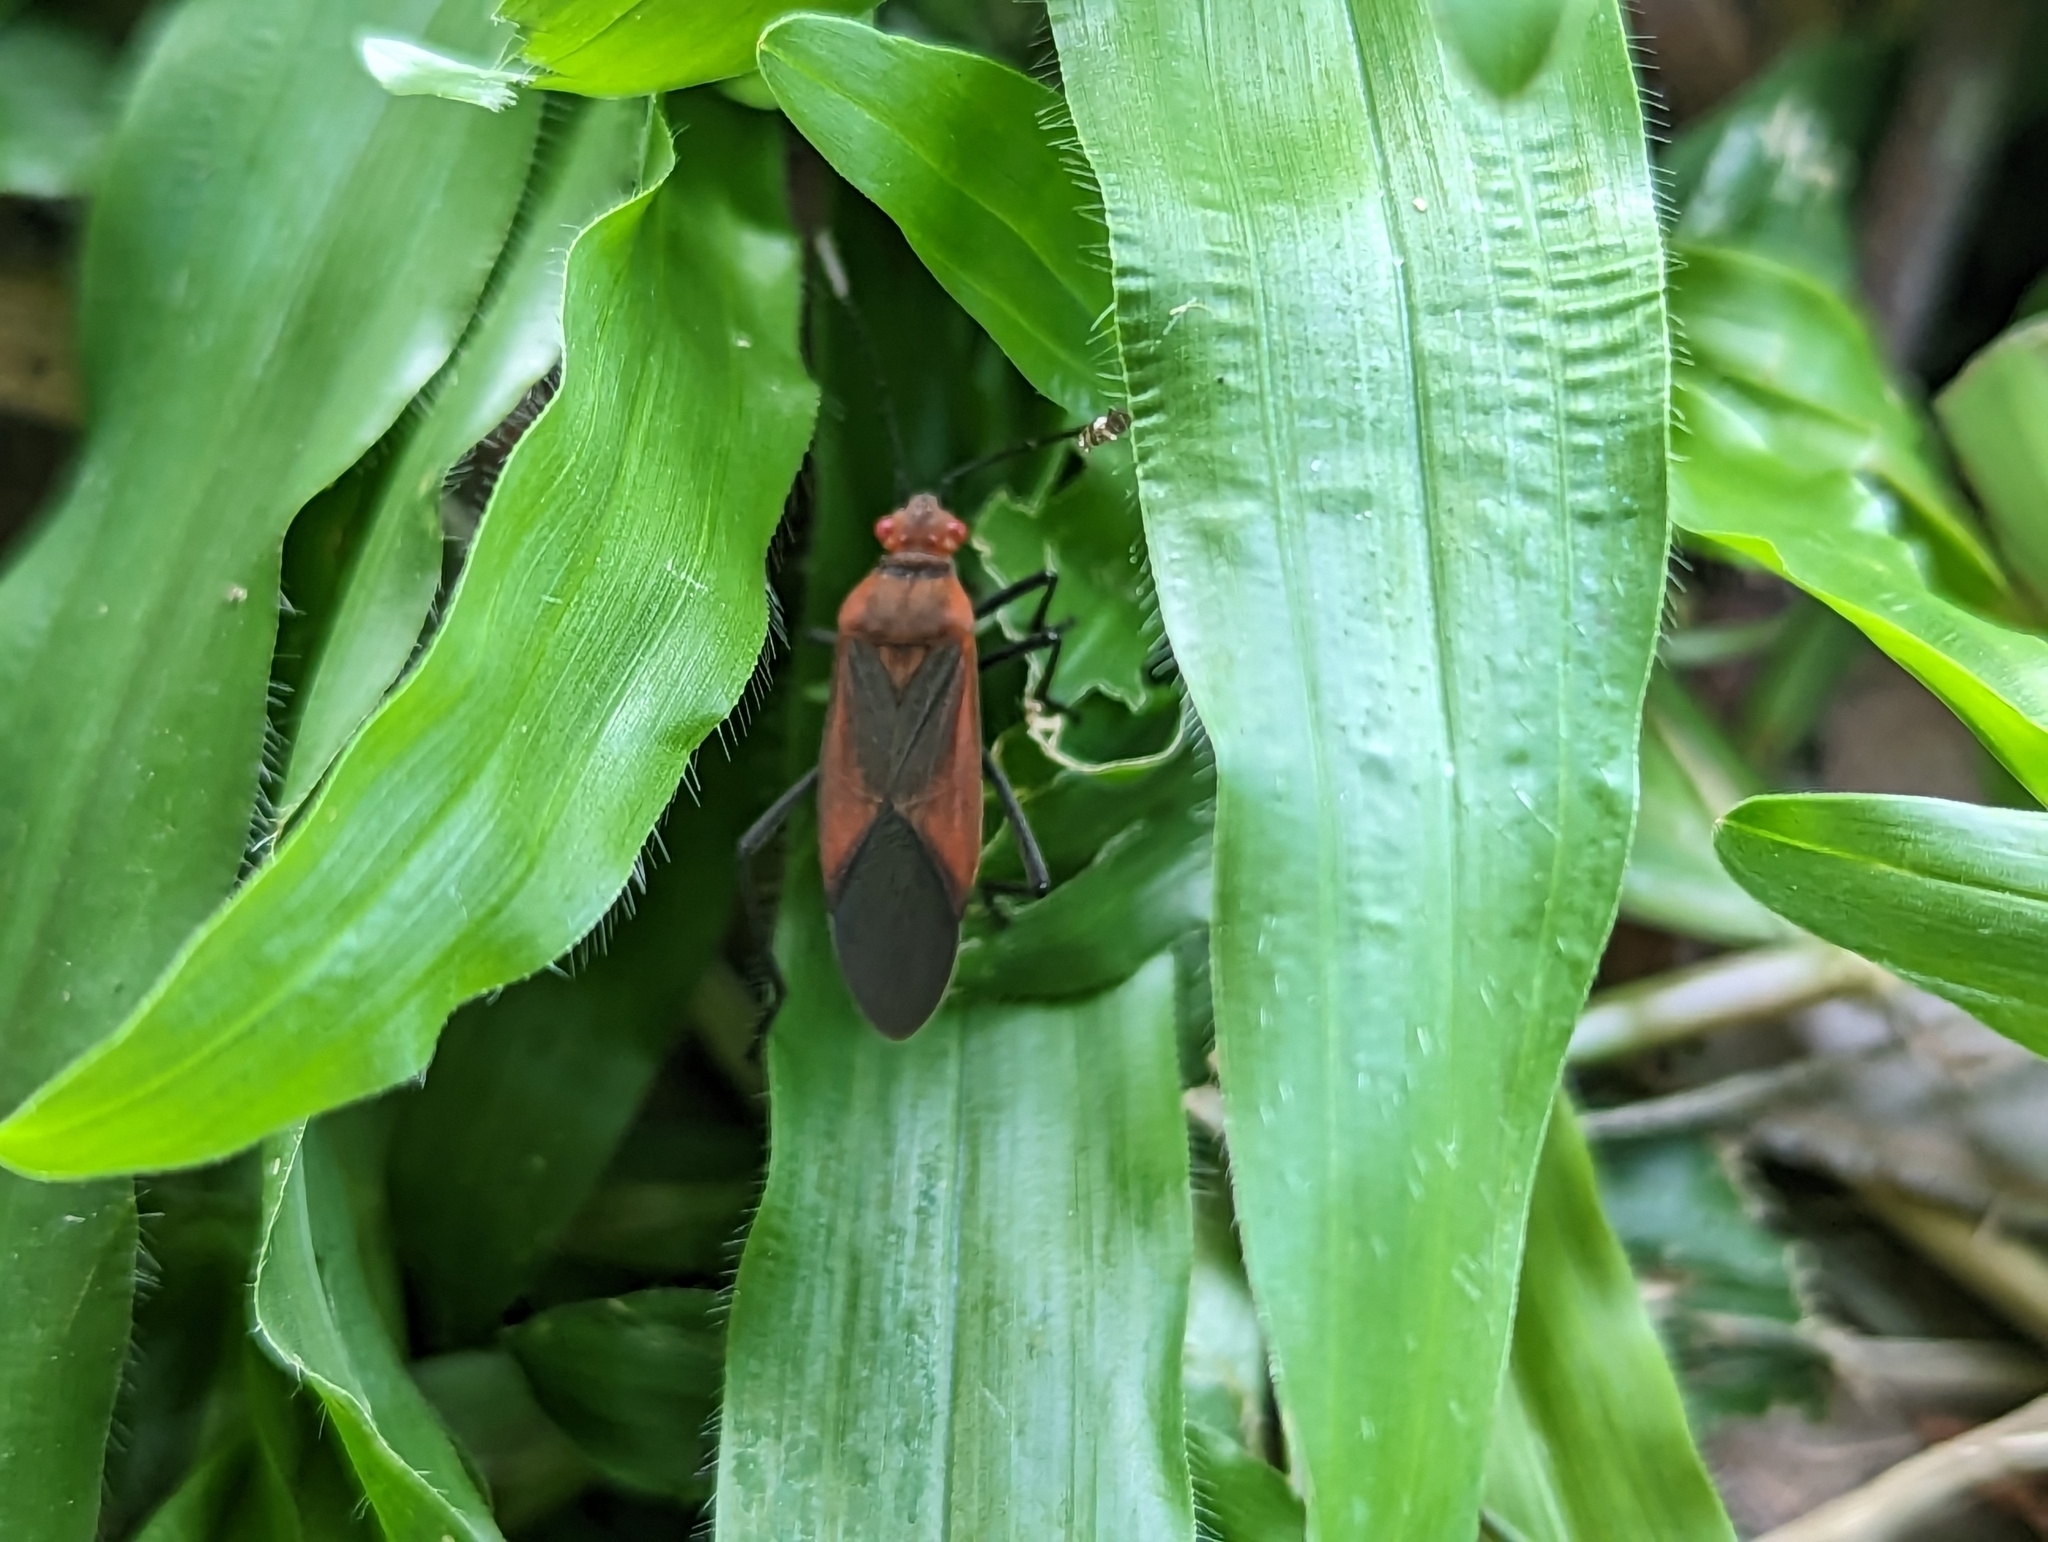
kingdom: Animalia
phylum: Arthropoda
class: Insecta
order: Hemiptera
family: Rhopalidae
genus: Leptocoris
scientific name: Leptocoris vicinus
